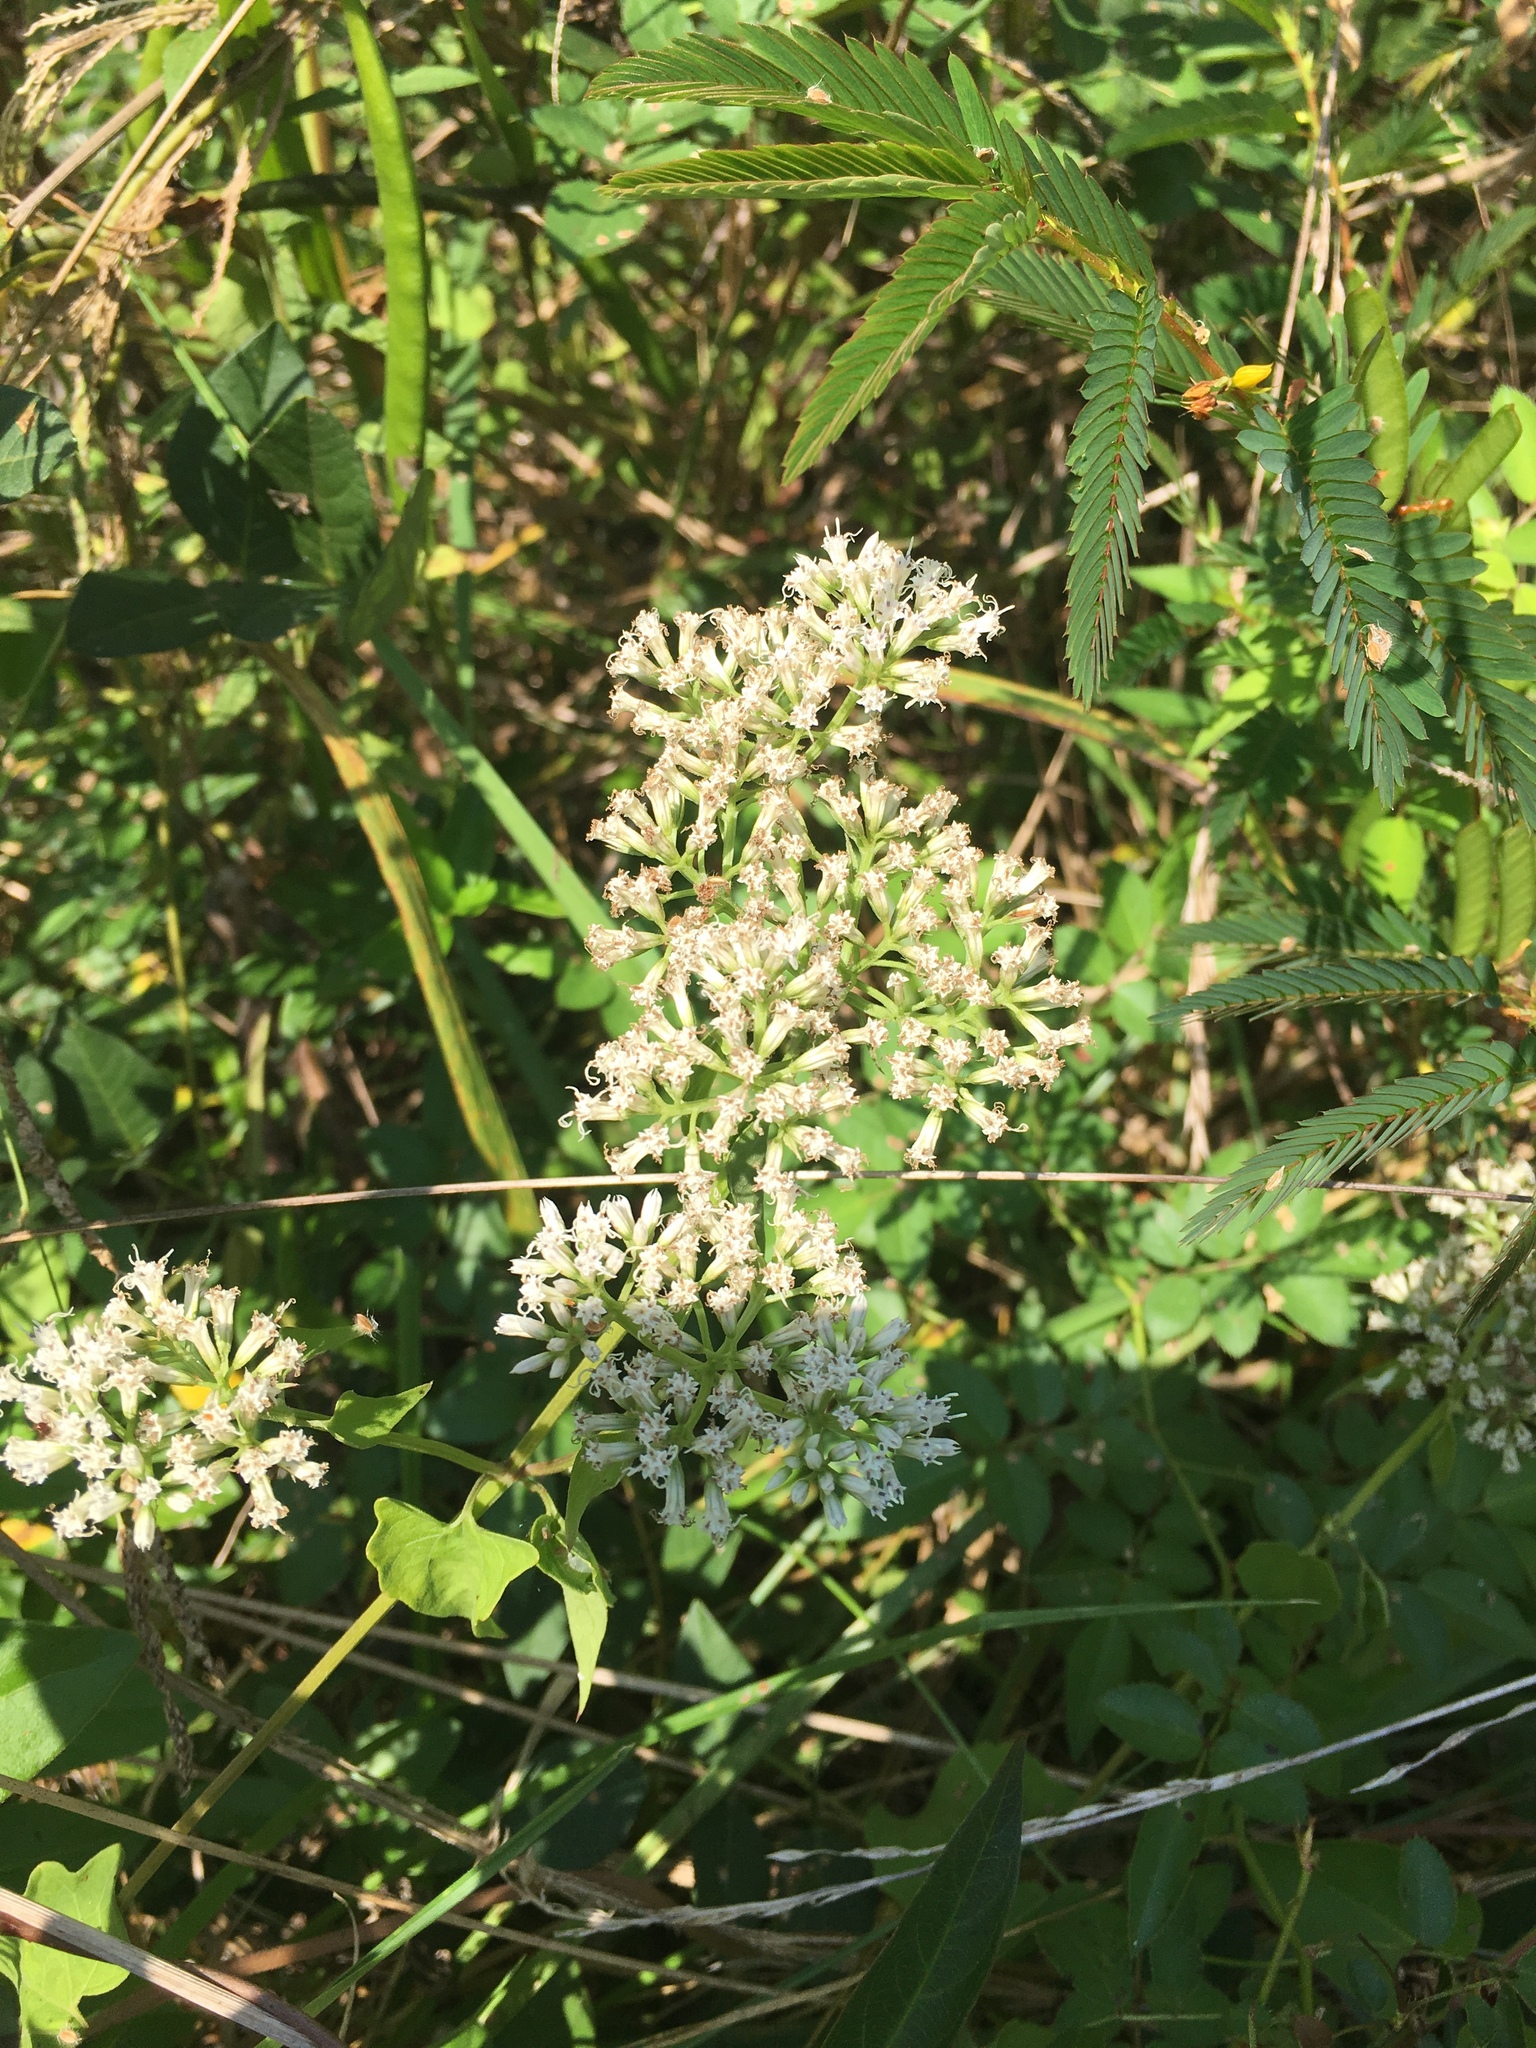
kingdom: Plantae
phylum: Tracheophyta
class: Magnoliopsida
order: Asterales
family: Asteraceae
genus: Mikania
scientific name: Mikania scandens
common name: Climbing hempvine
